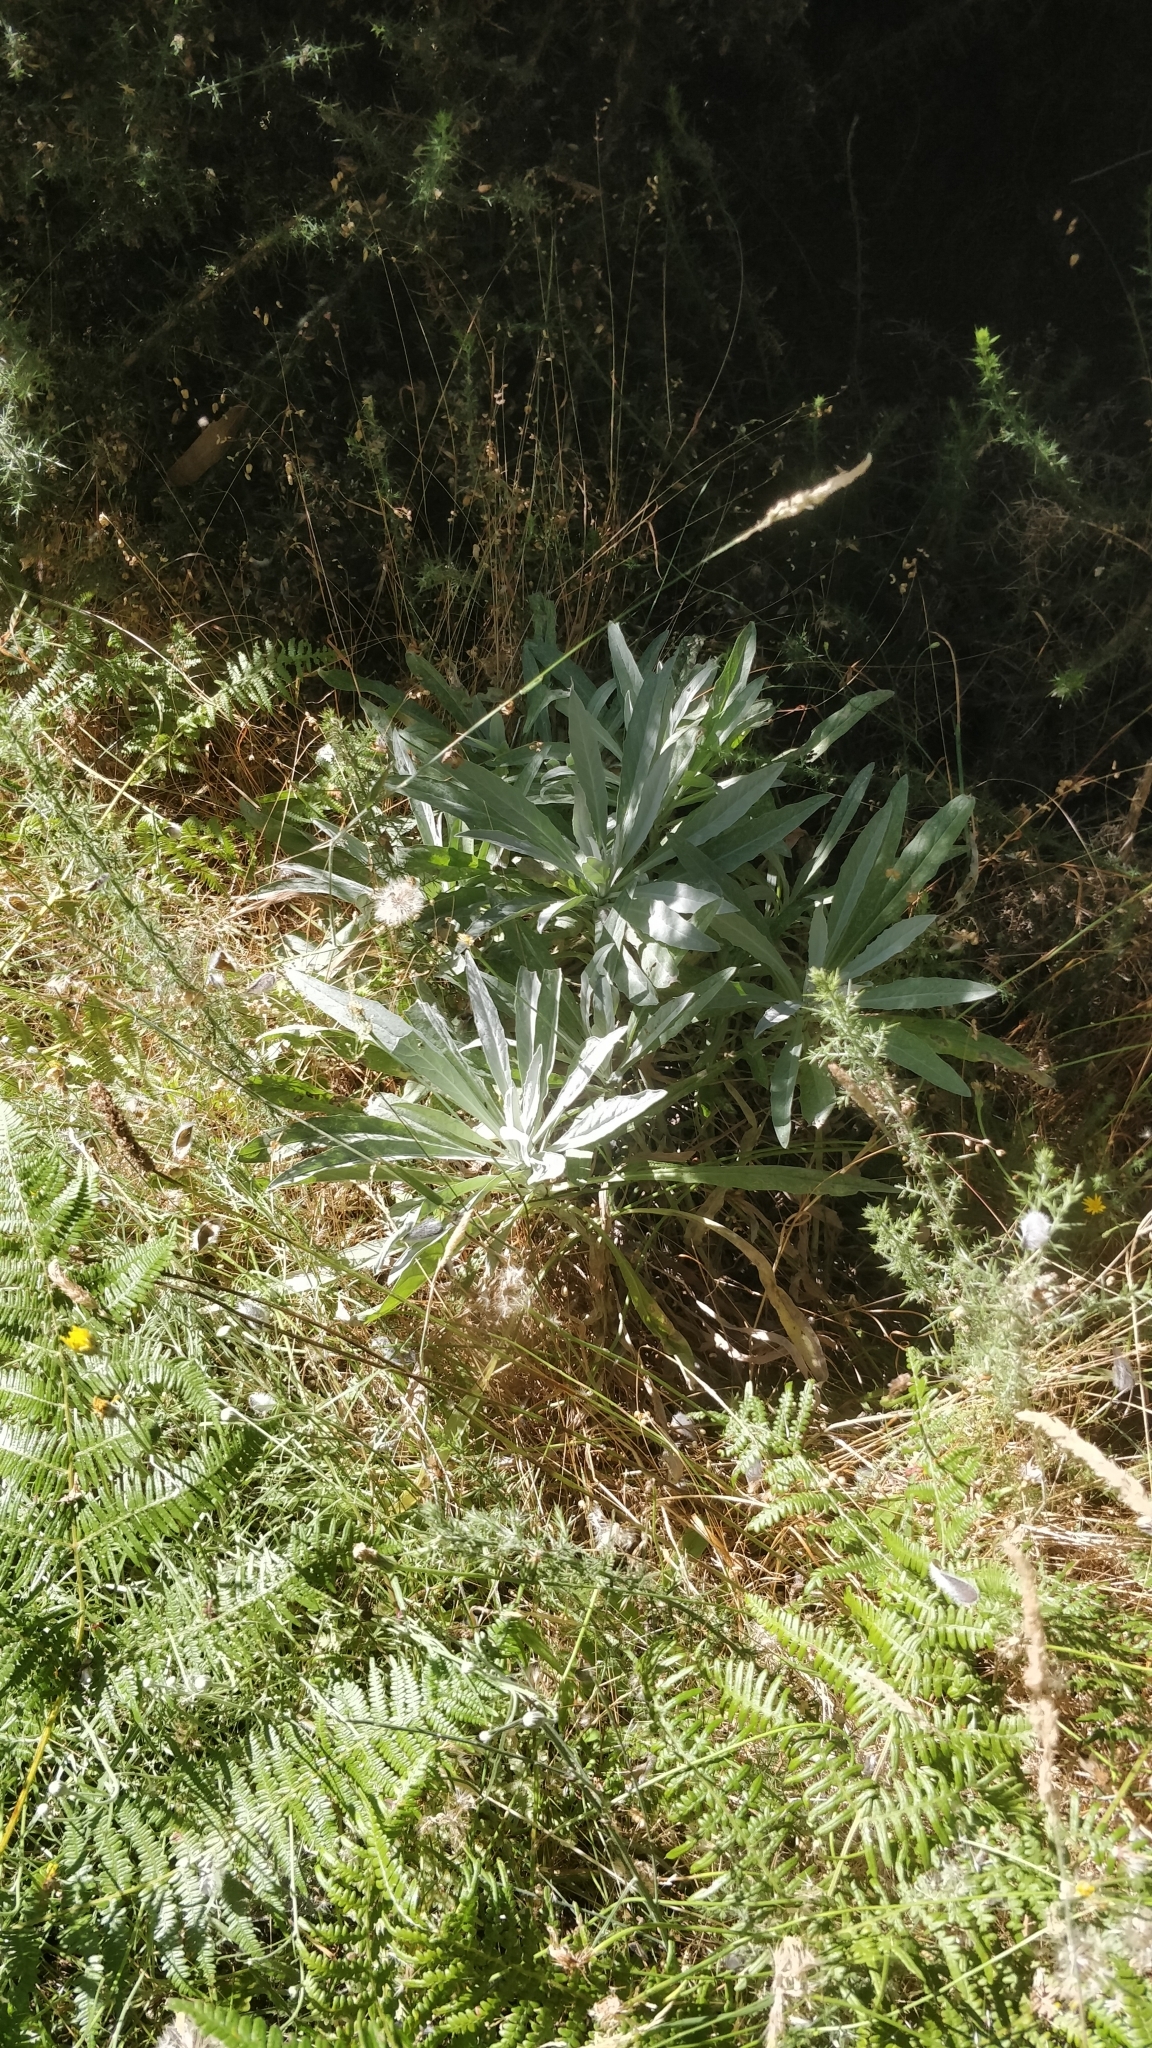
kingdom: Plantae
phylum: Tracheophyta
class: Magnoliopsida
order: Asterales
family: Asteraceae
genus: Andryala
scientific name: Andryala glandulosa
